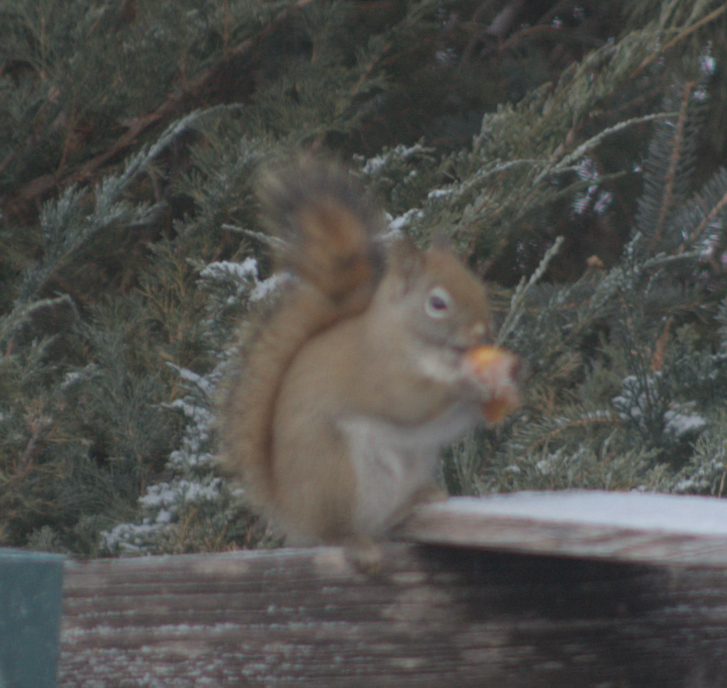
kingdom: Animalia
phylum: Chordata
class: Mammalia
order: Rodentia
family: Sciuridae
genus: Tamiasciurus
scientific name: Tamiasciurus hudsonicus
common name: Red squirrel
